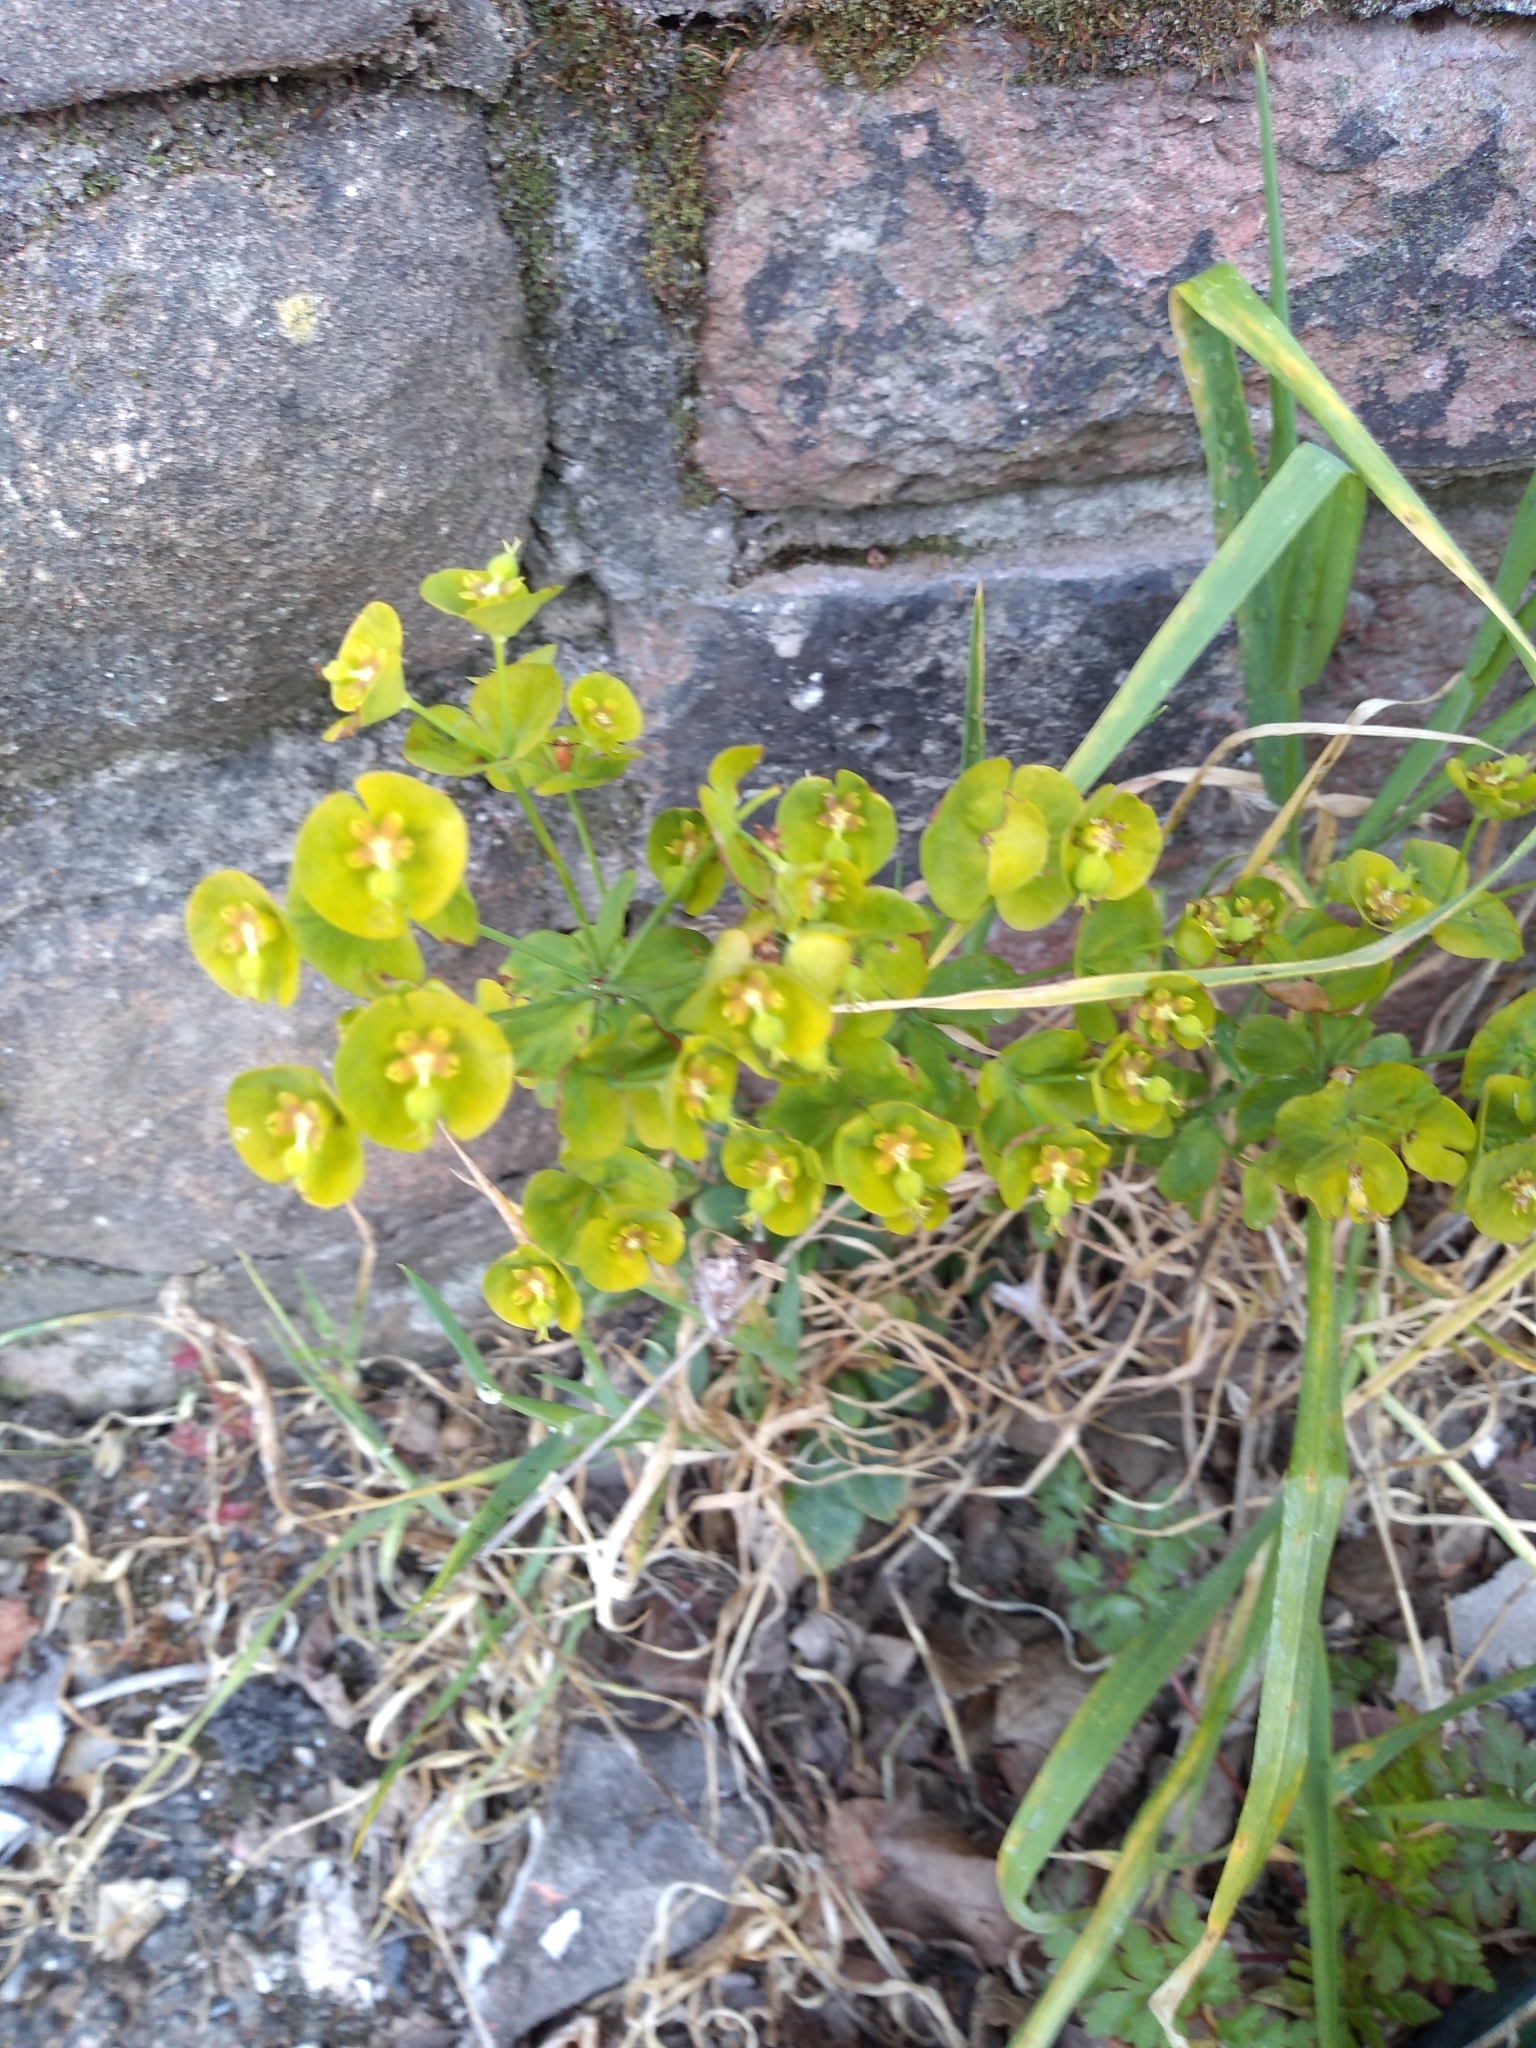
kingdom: Plantae
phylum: Tracheophyta
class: Magnoliopsida
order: Malpighiales
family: Euphorbiaceae
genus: Euphorbia
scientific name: Euphorbia amygdaloides
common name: Wood spurge
